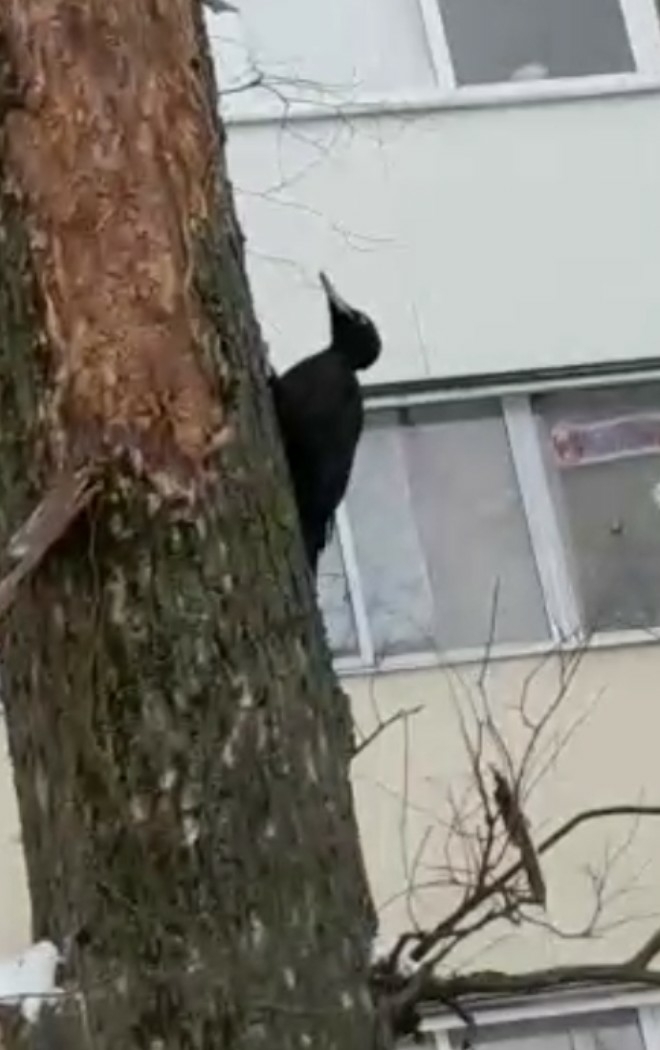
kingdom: Animalia
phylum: Chordata
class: Aves
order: Piciformes
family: Picidae
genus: Dryocopus
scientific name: Dryocopus martius
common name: Black woodpecker
